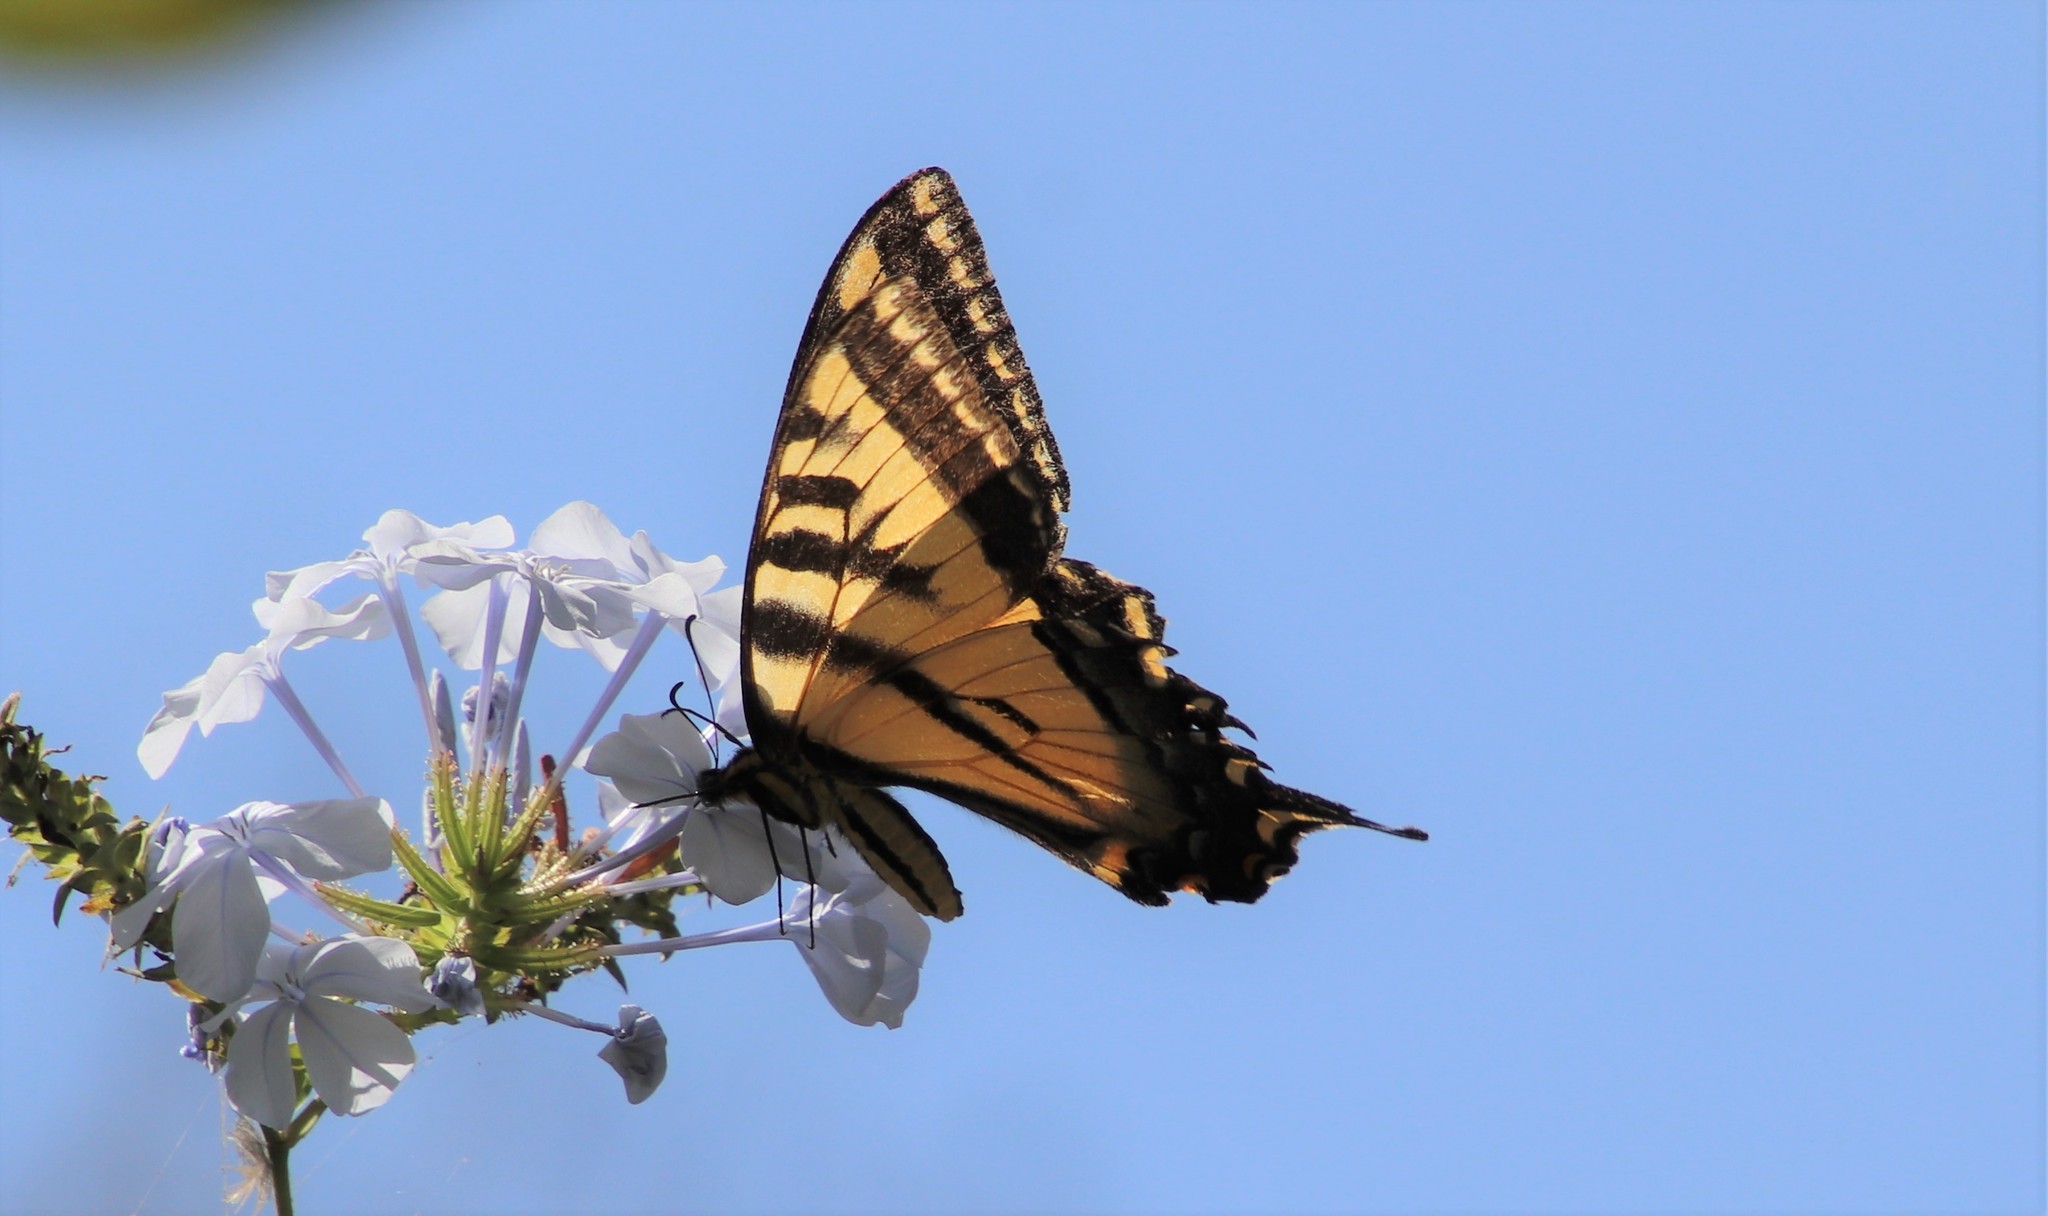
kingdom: Animalia
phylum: Arthropoda
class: Insecta
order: Lepidoptera
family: Papilionidae
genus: Papilio
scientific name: Papilio rutulus
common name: Western tiger swallowtail
